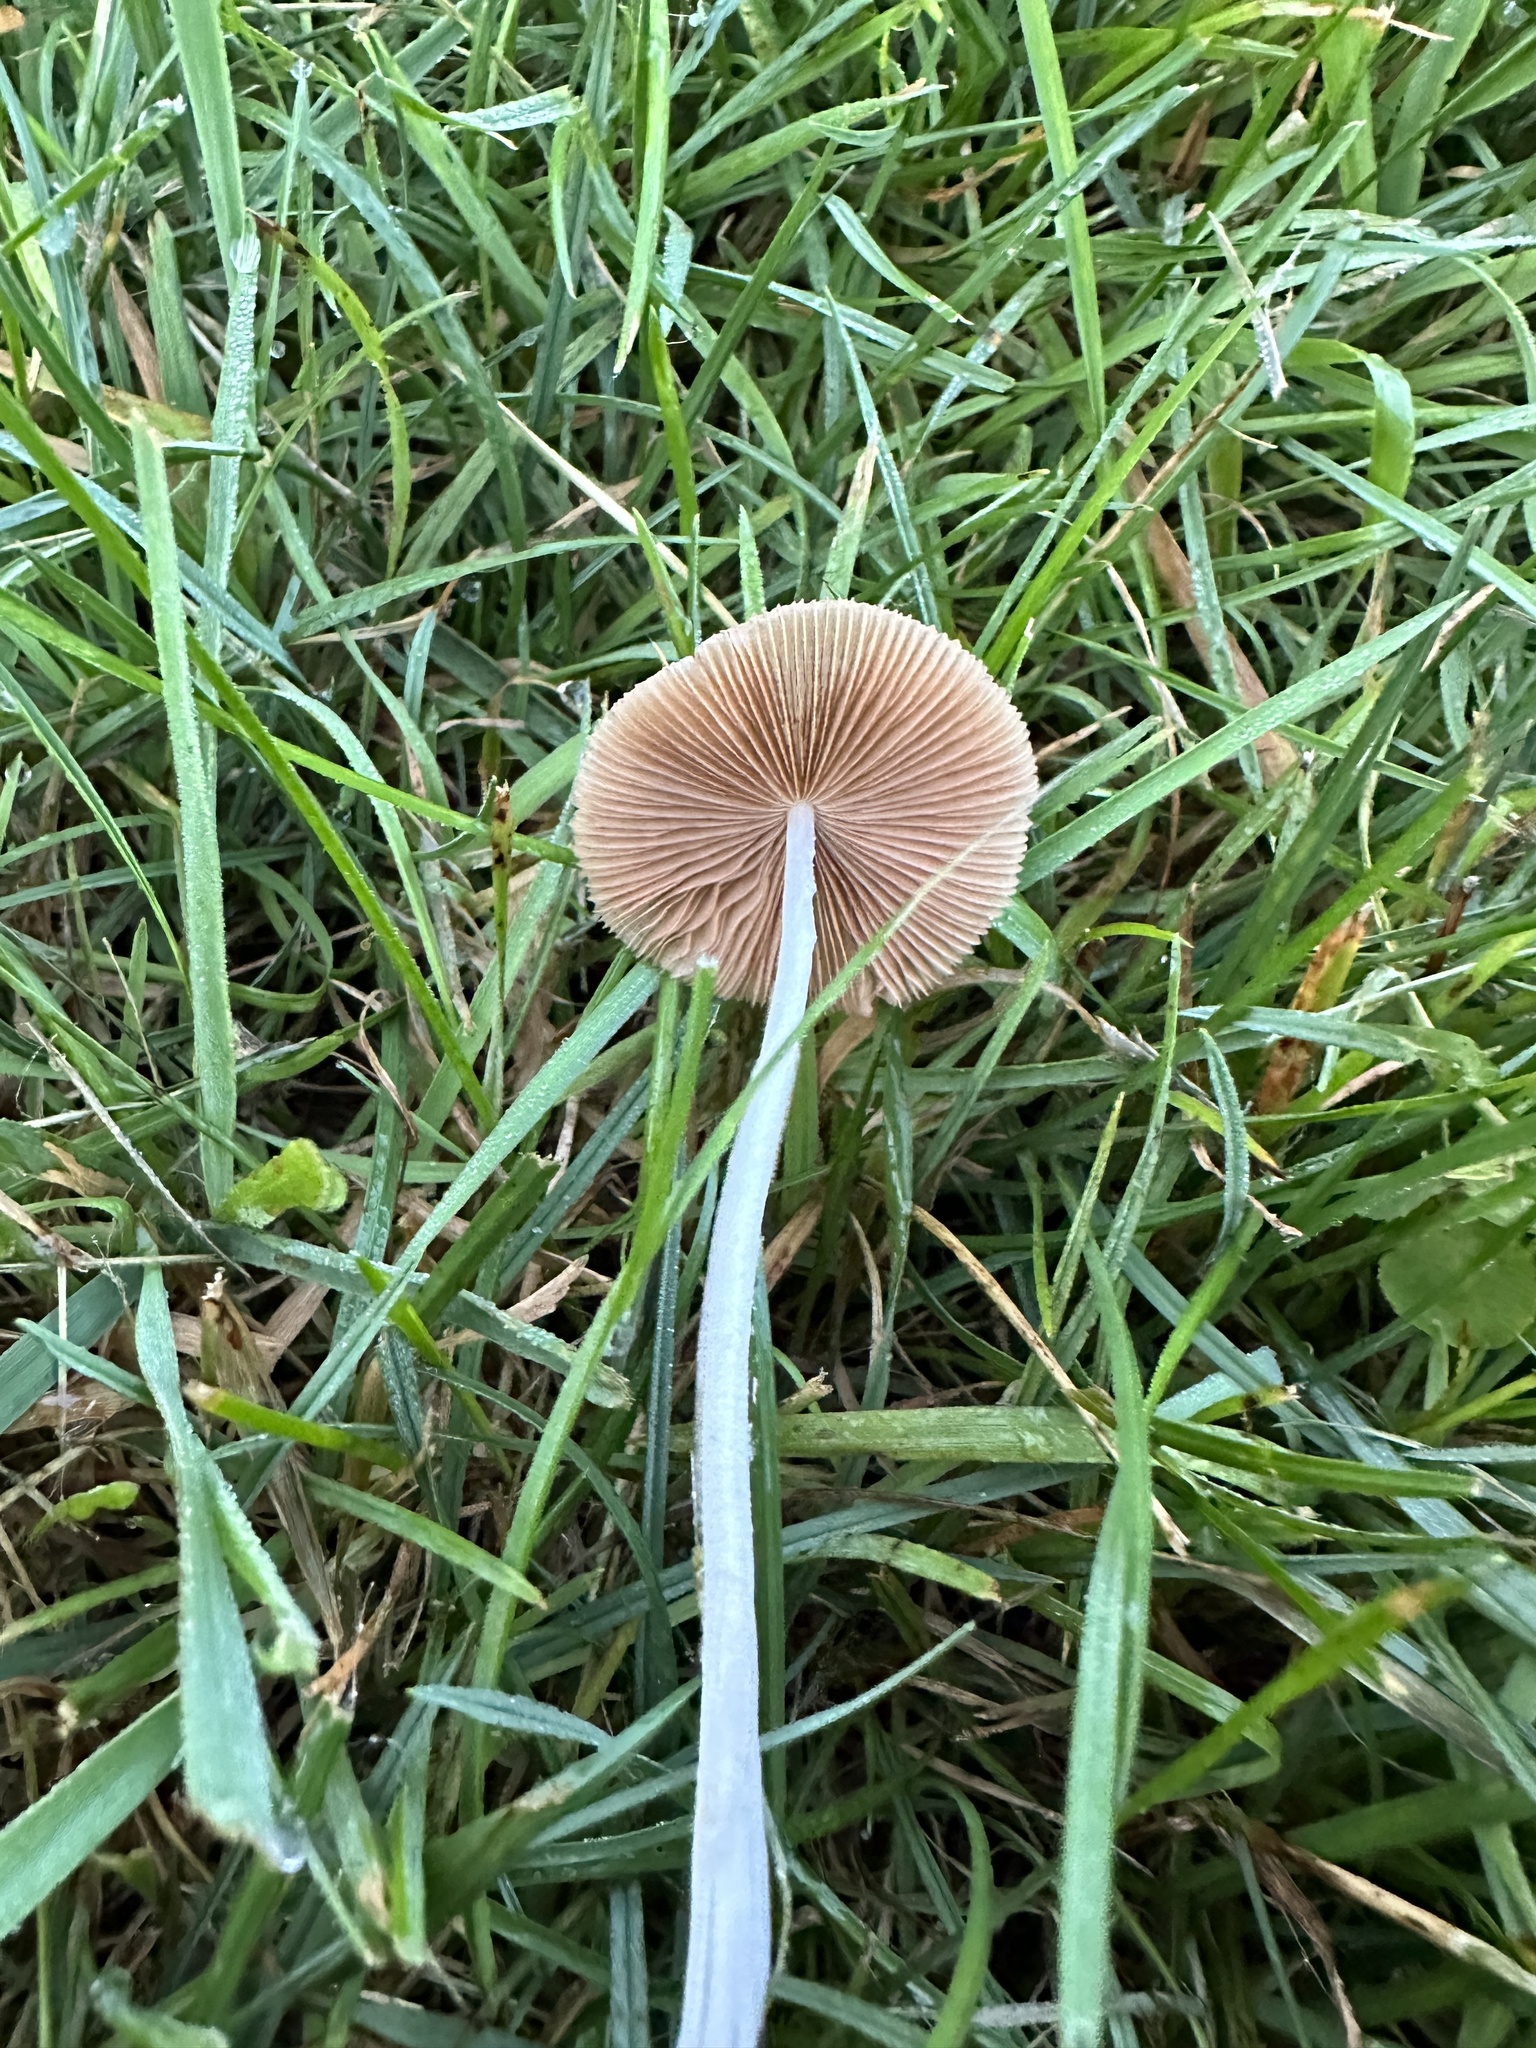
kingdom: Fungi
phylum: Basidiomycota
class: Agaricomycetes
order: Agaricales
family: Bolbitiaceae
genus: Conocybe
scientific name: Conocybe apala
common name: Milky conecap
